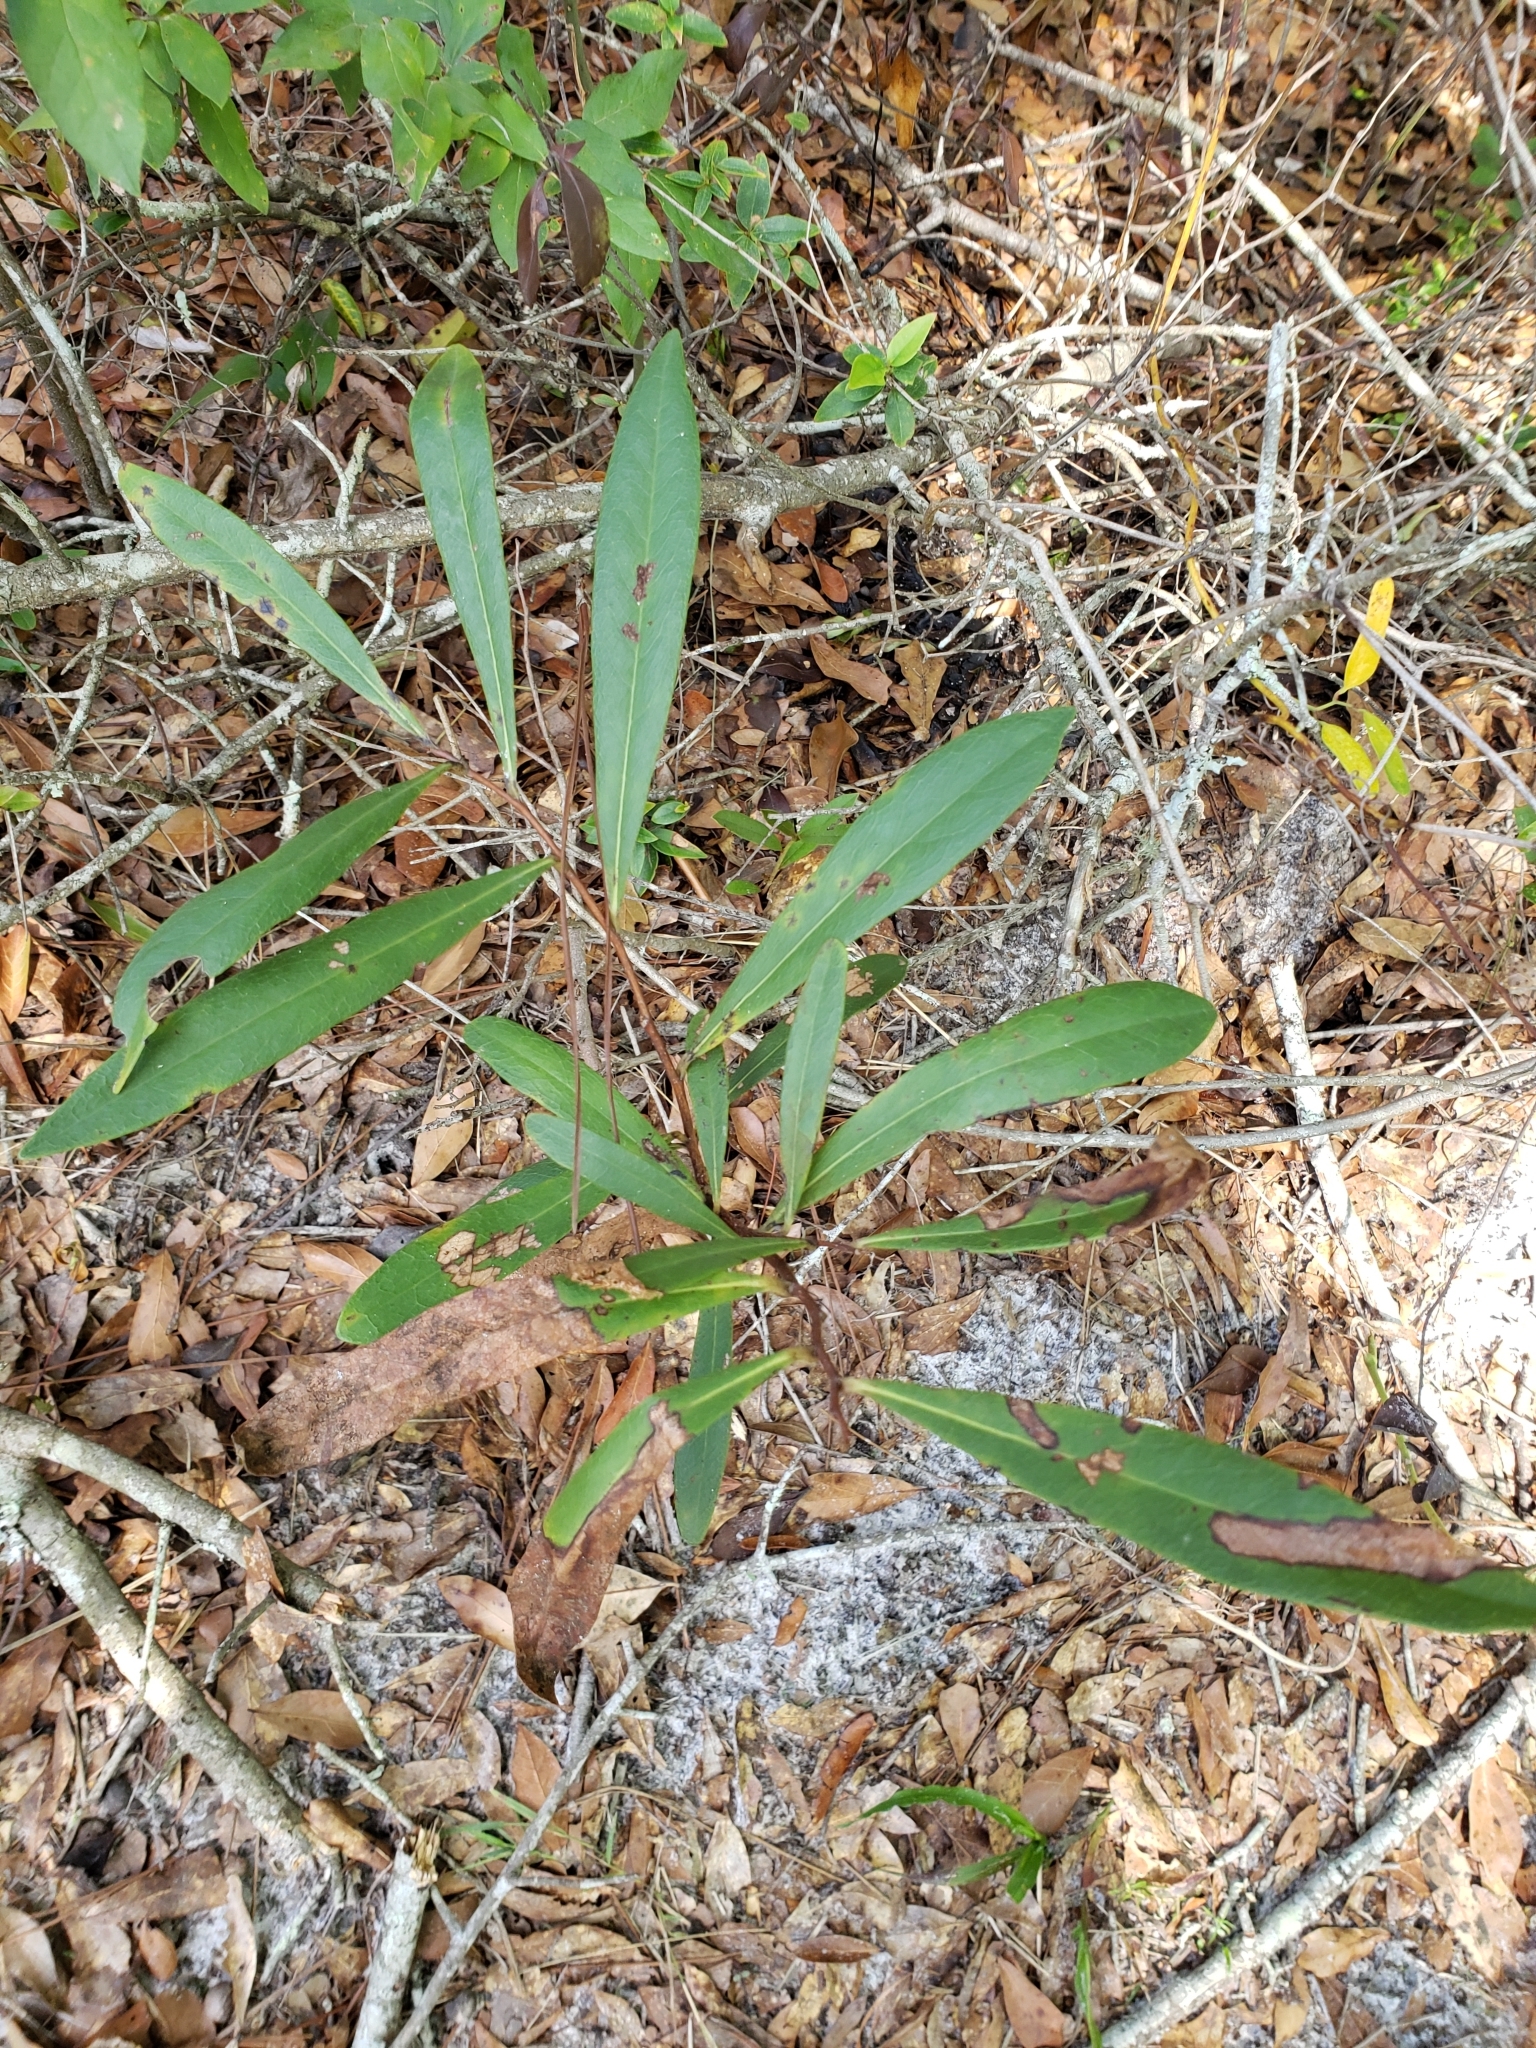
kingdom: Plantae
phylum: Tracheophyta
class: Magnoliopsida
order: Magnoliales
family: Annonaceae
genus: Asimina
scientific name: Asimina pygmaea
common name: Dwarf pawpaw
